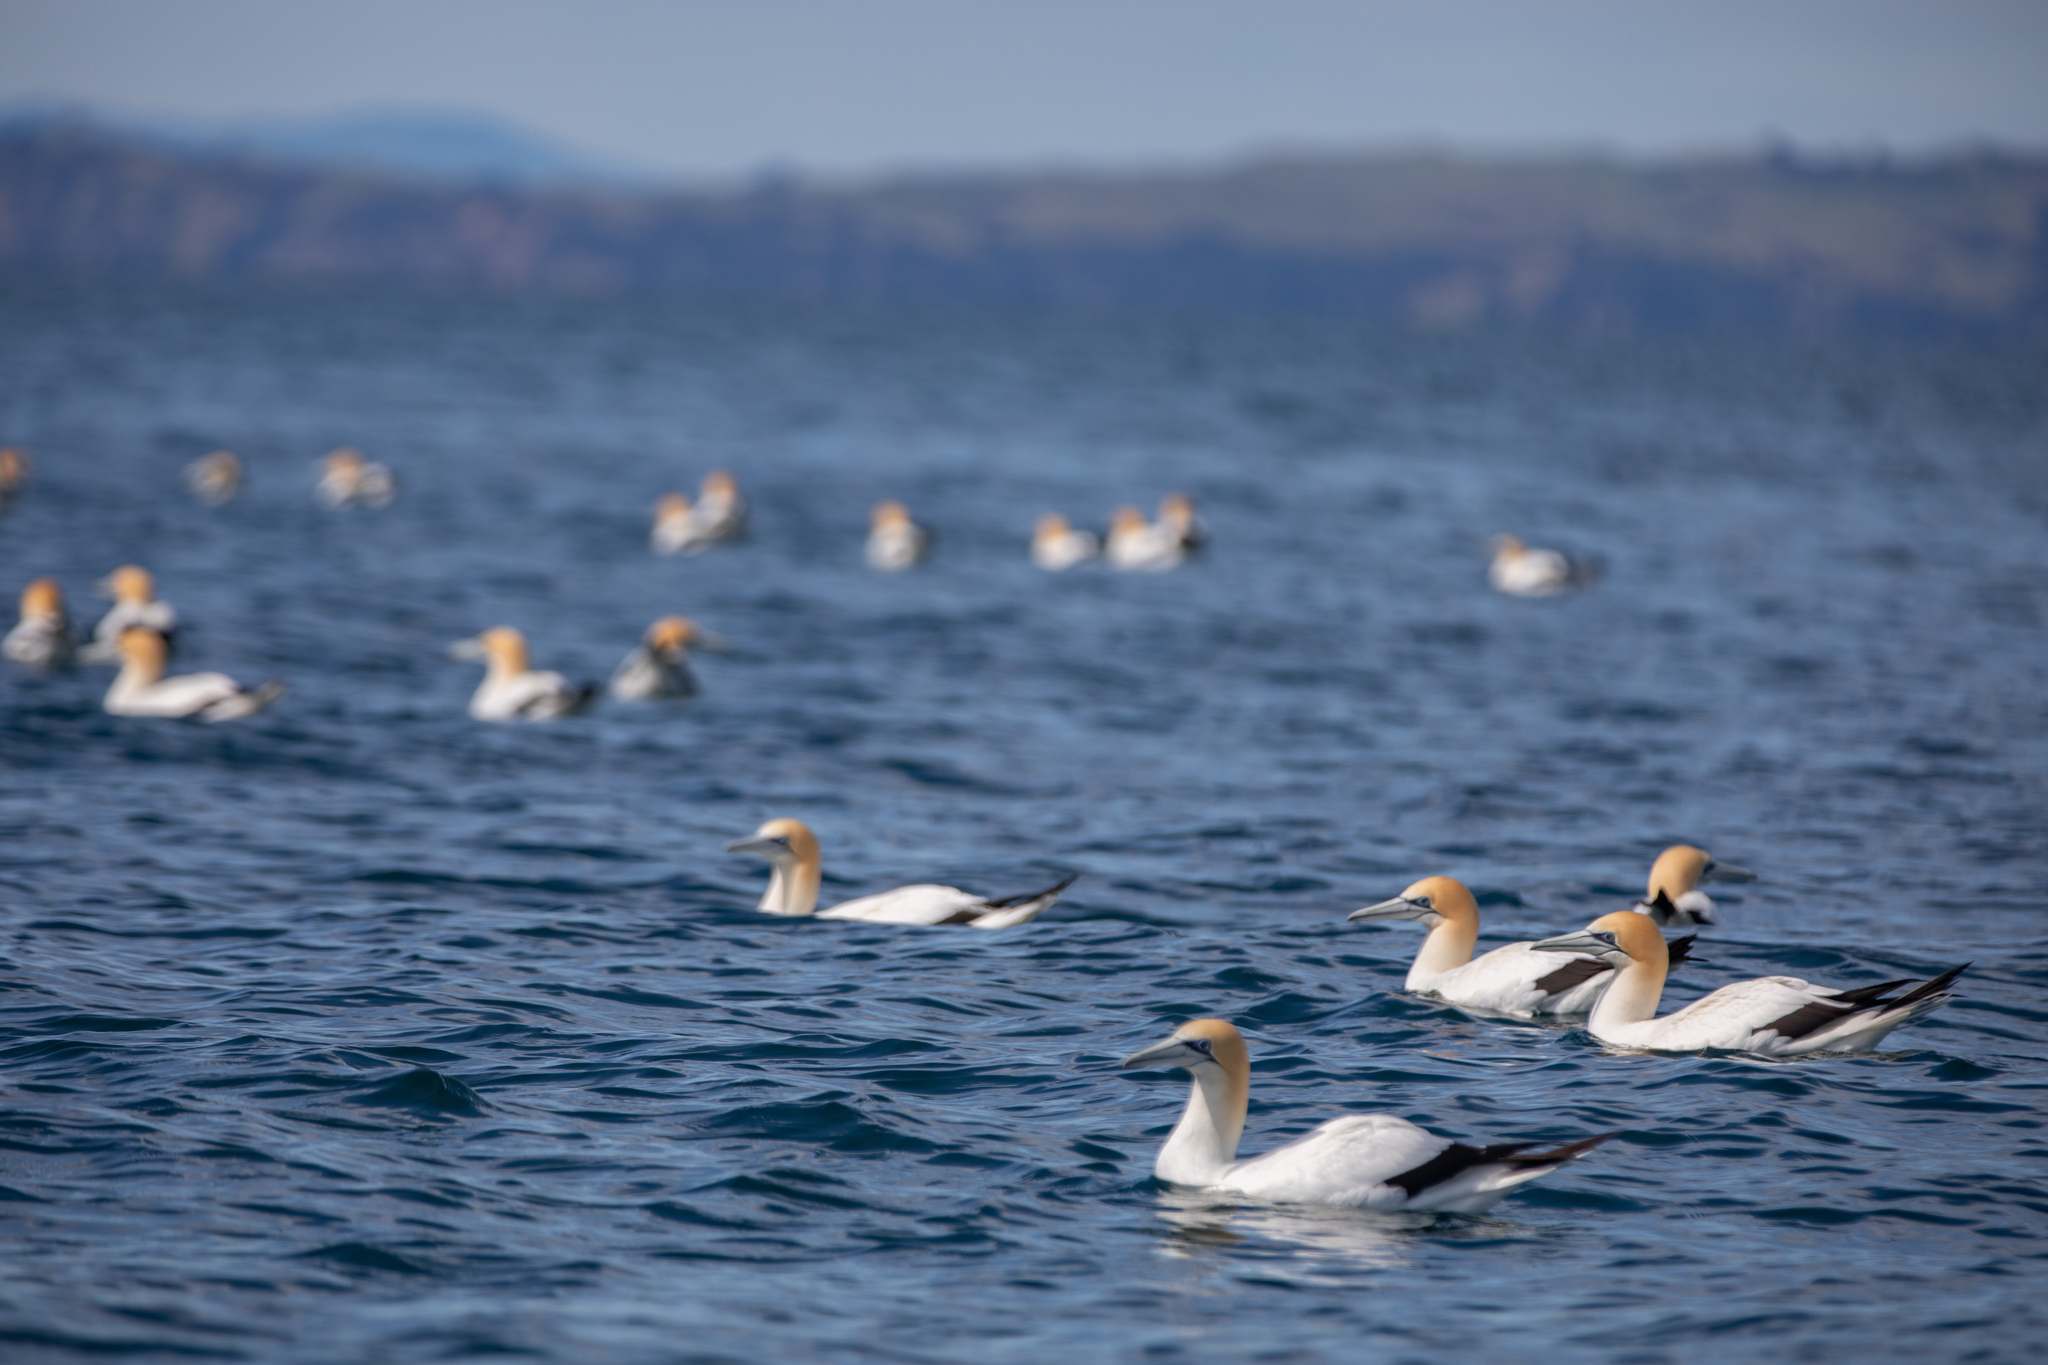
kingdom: Animalia
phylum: Chordata
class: Aves
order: Suliformes
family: Sulidae
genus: Morus
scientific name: Morus serrator
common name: Australasian gannet
